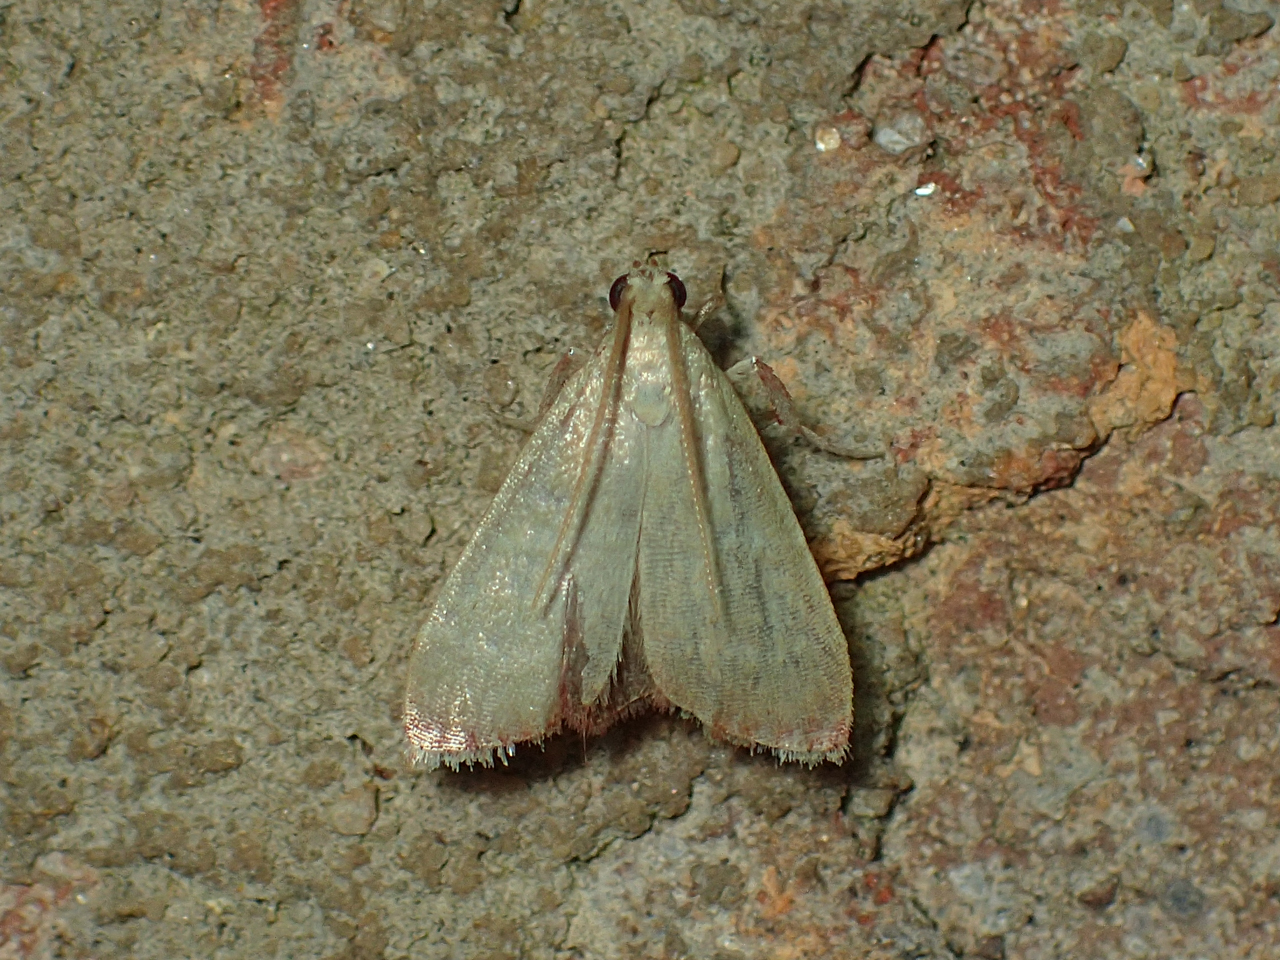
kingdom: Animalia
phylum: Arthropoda
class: Insecta
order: Lepidoptera
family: Pyralidae
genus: Arta
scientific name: Arta olivalis
